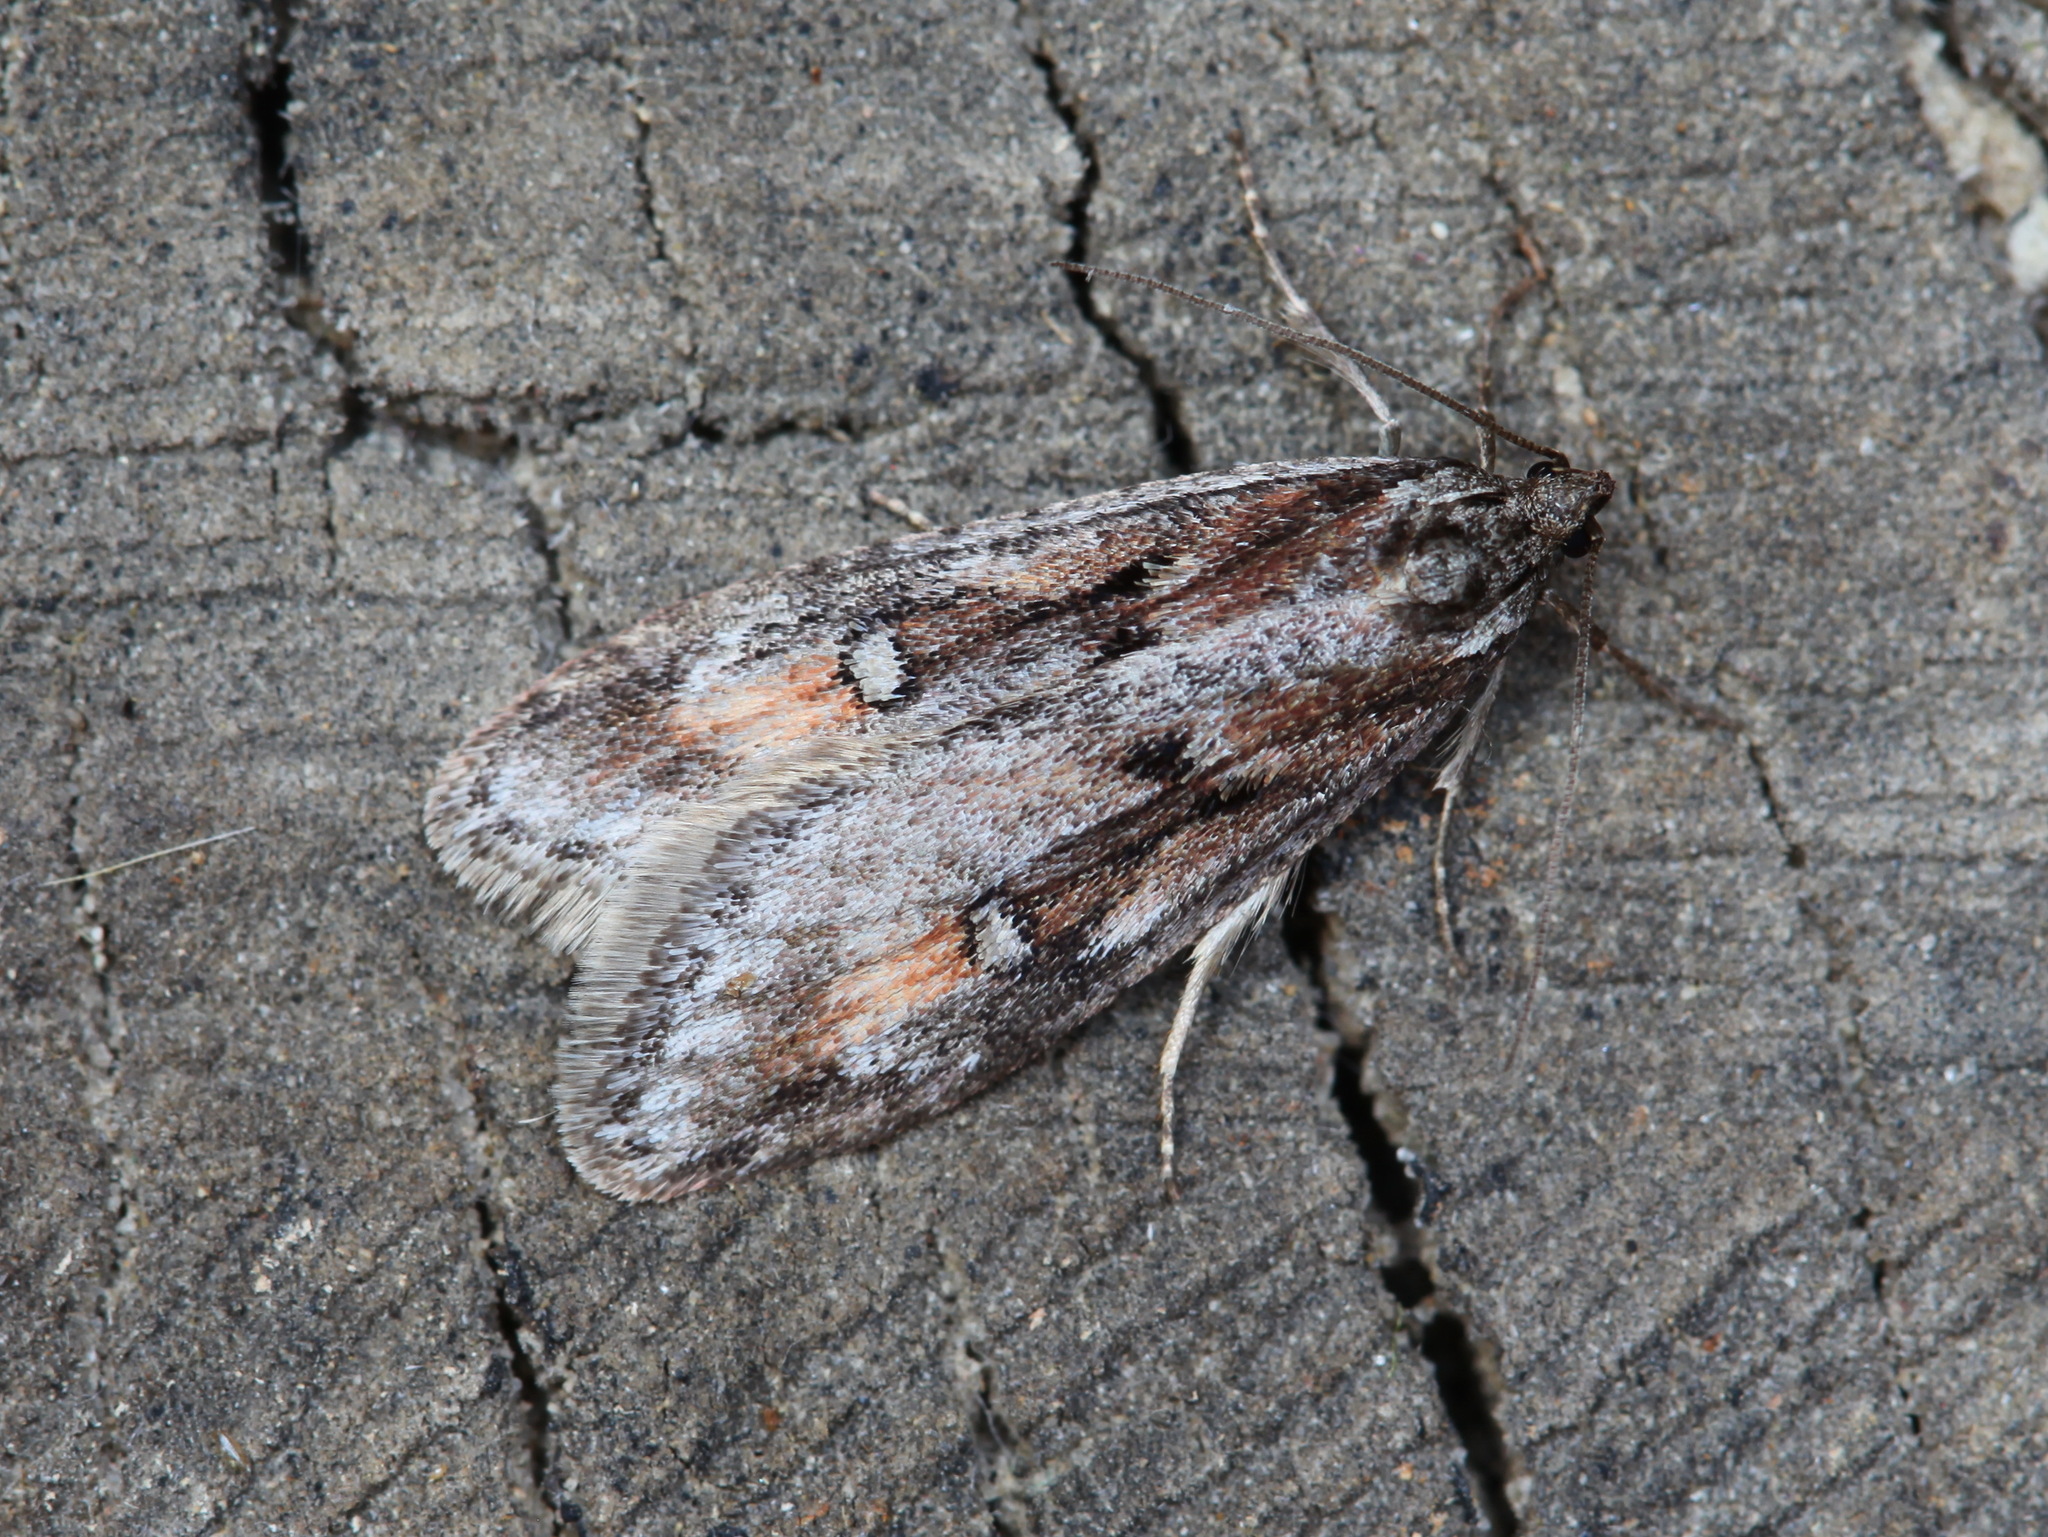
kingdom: Animalia
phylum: Arthropoda
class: Insecta
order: Lepidoptera
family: Depressariidae
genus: Semioscopis
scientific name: Semioscopis anella
